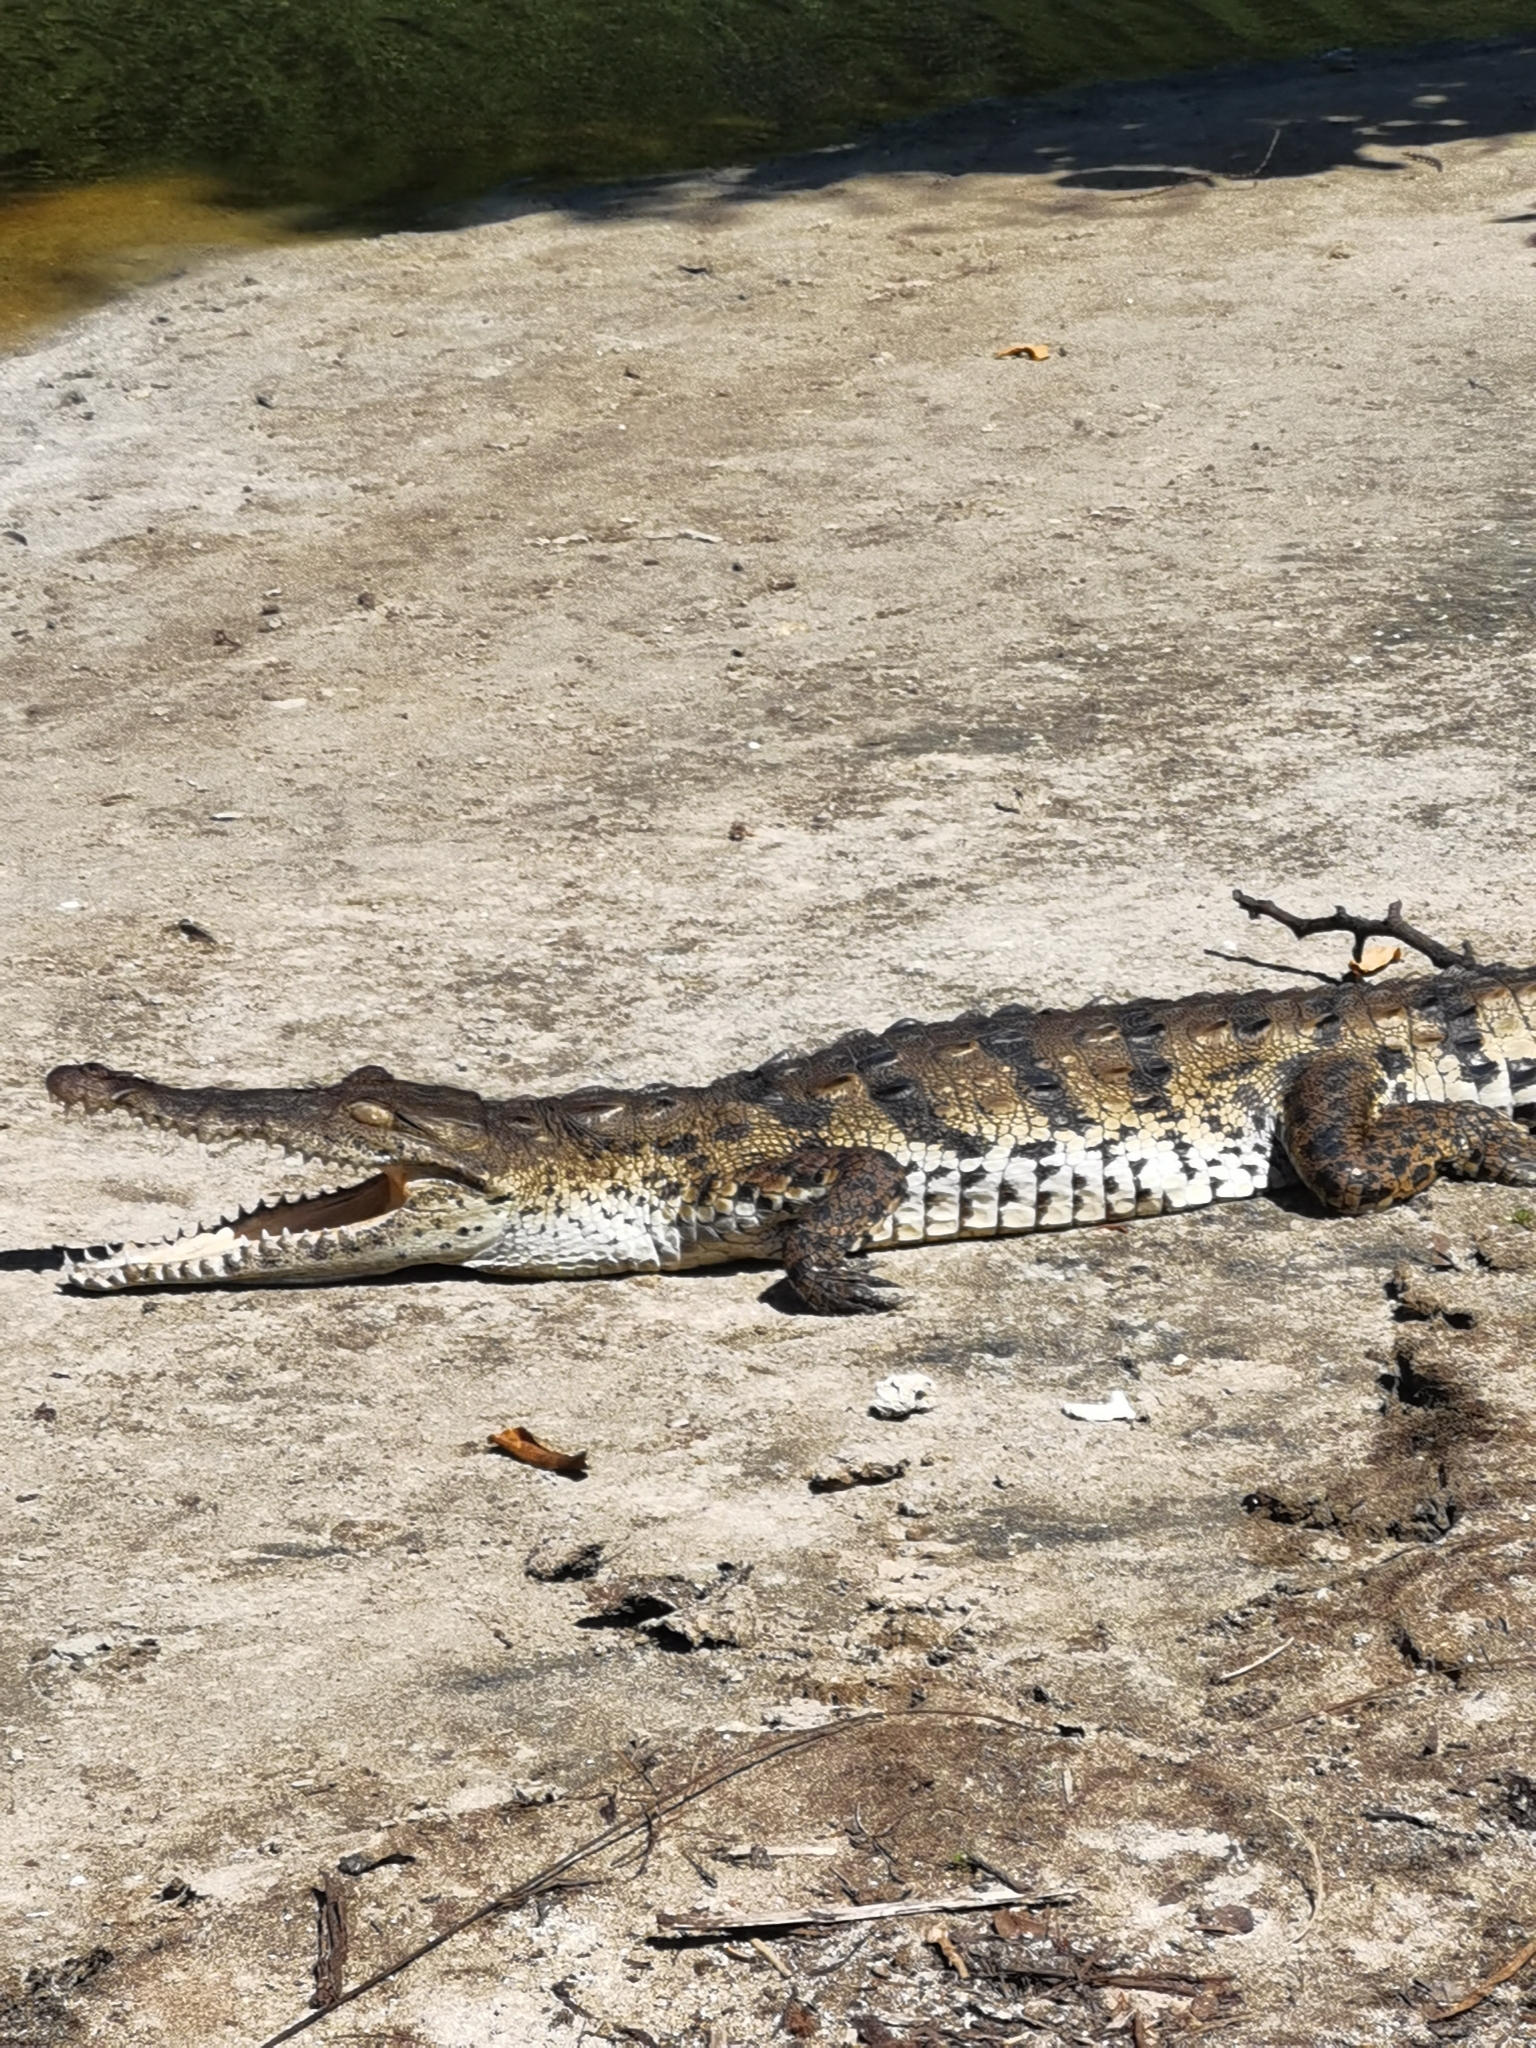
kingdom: Animalia
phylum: Chordata
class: Crocodylia
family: Crocodylidae
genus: Crocodylus
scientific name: Crocodylus acutus
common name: American crocodile
